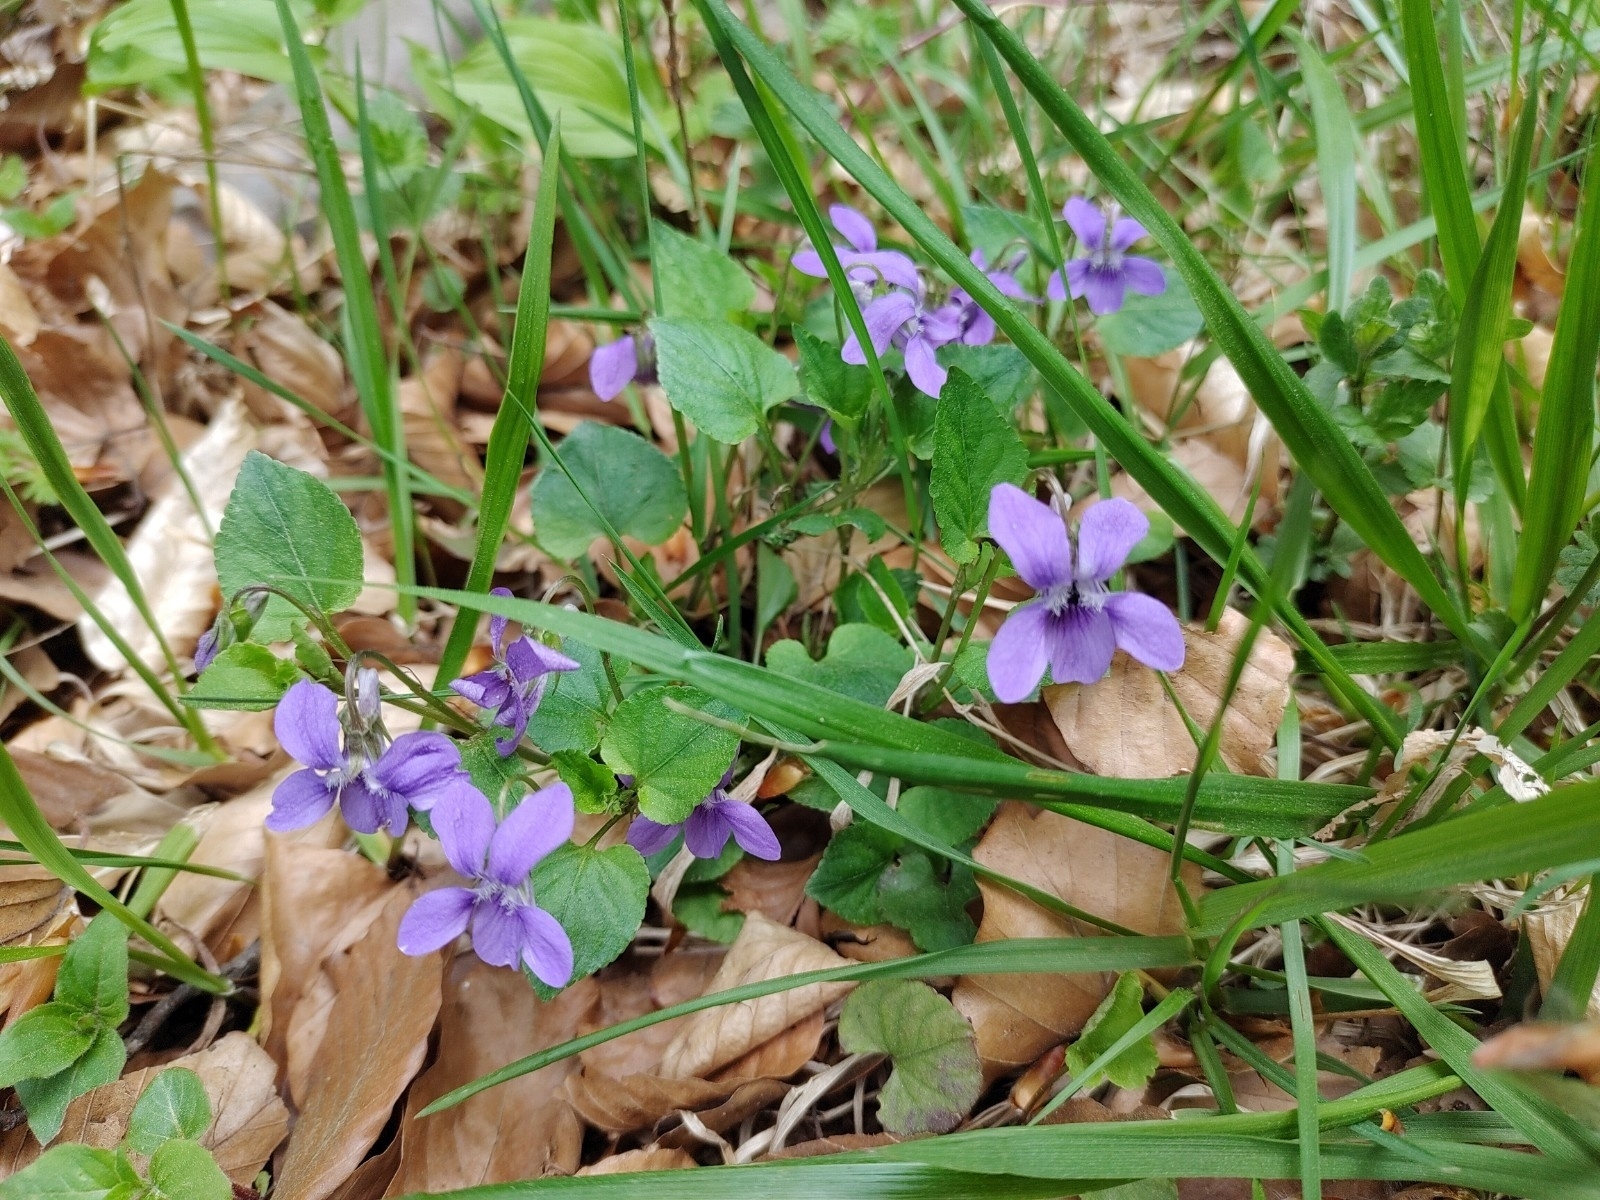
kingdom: Plantae
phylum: Tracheophyta
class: Magnoliopsida
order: Malpighiales
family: Violaceae
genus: Viola
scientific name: Viola reichenbachiana
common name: Early dog-violet
